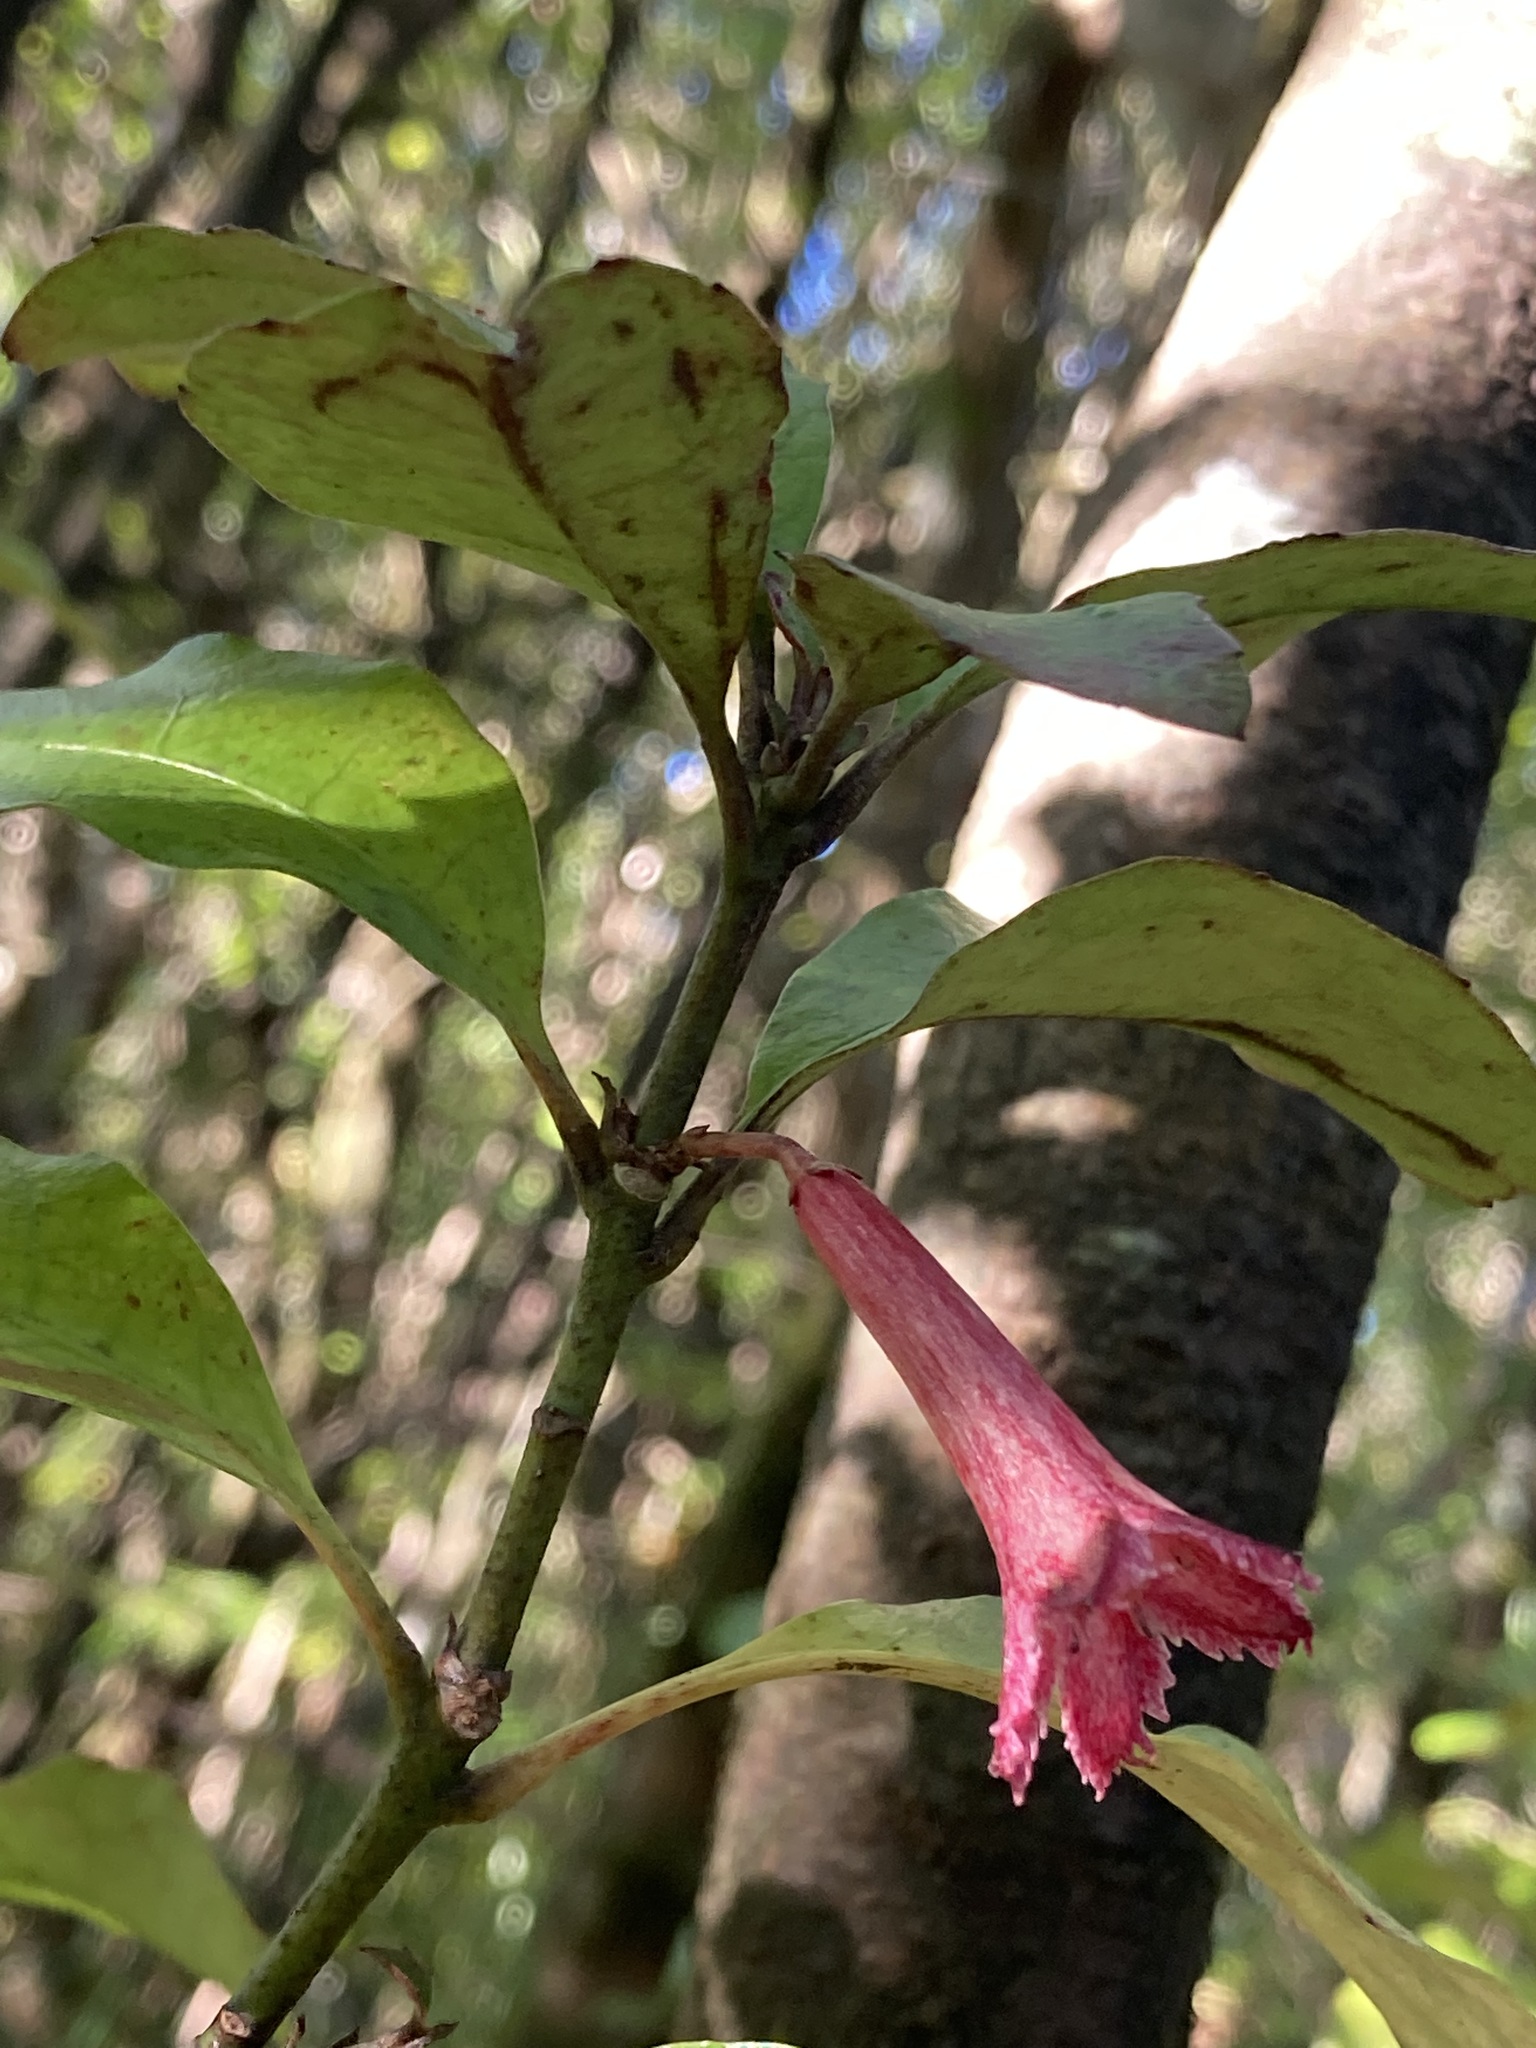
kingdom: Plantae
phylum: Tracheophyta
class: Magnoliopsida
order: Asterales
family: Alseuosmiaceae
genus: Alseuosmia
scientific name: Alseuosmia macrophylla
